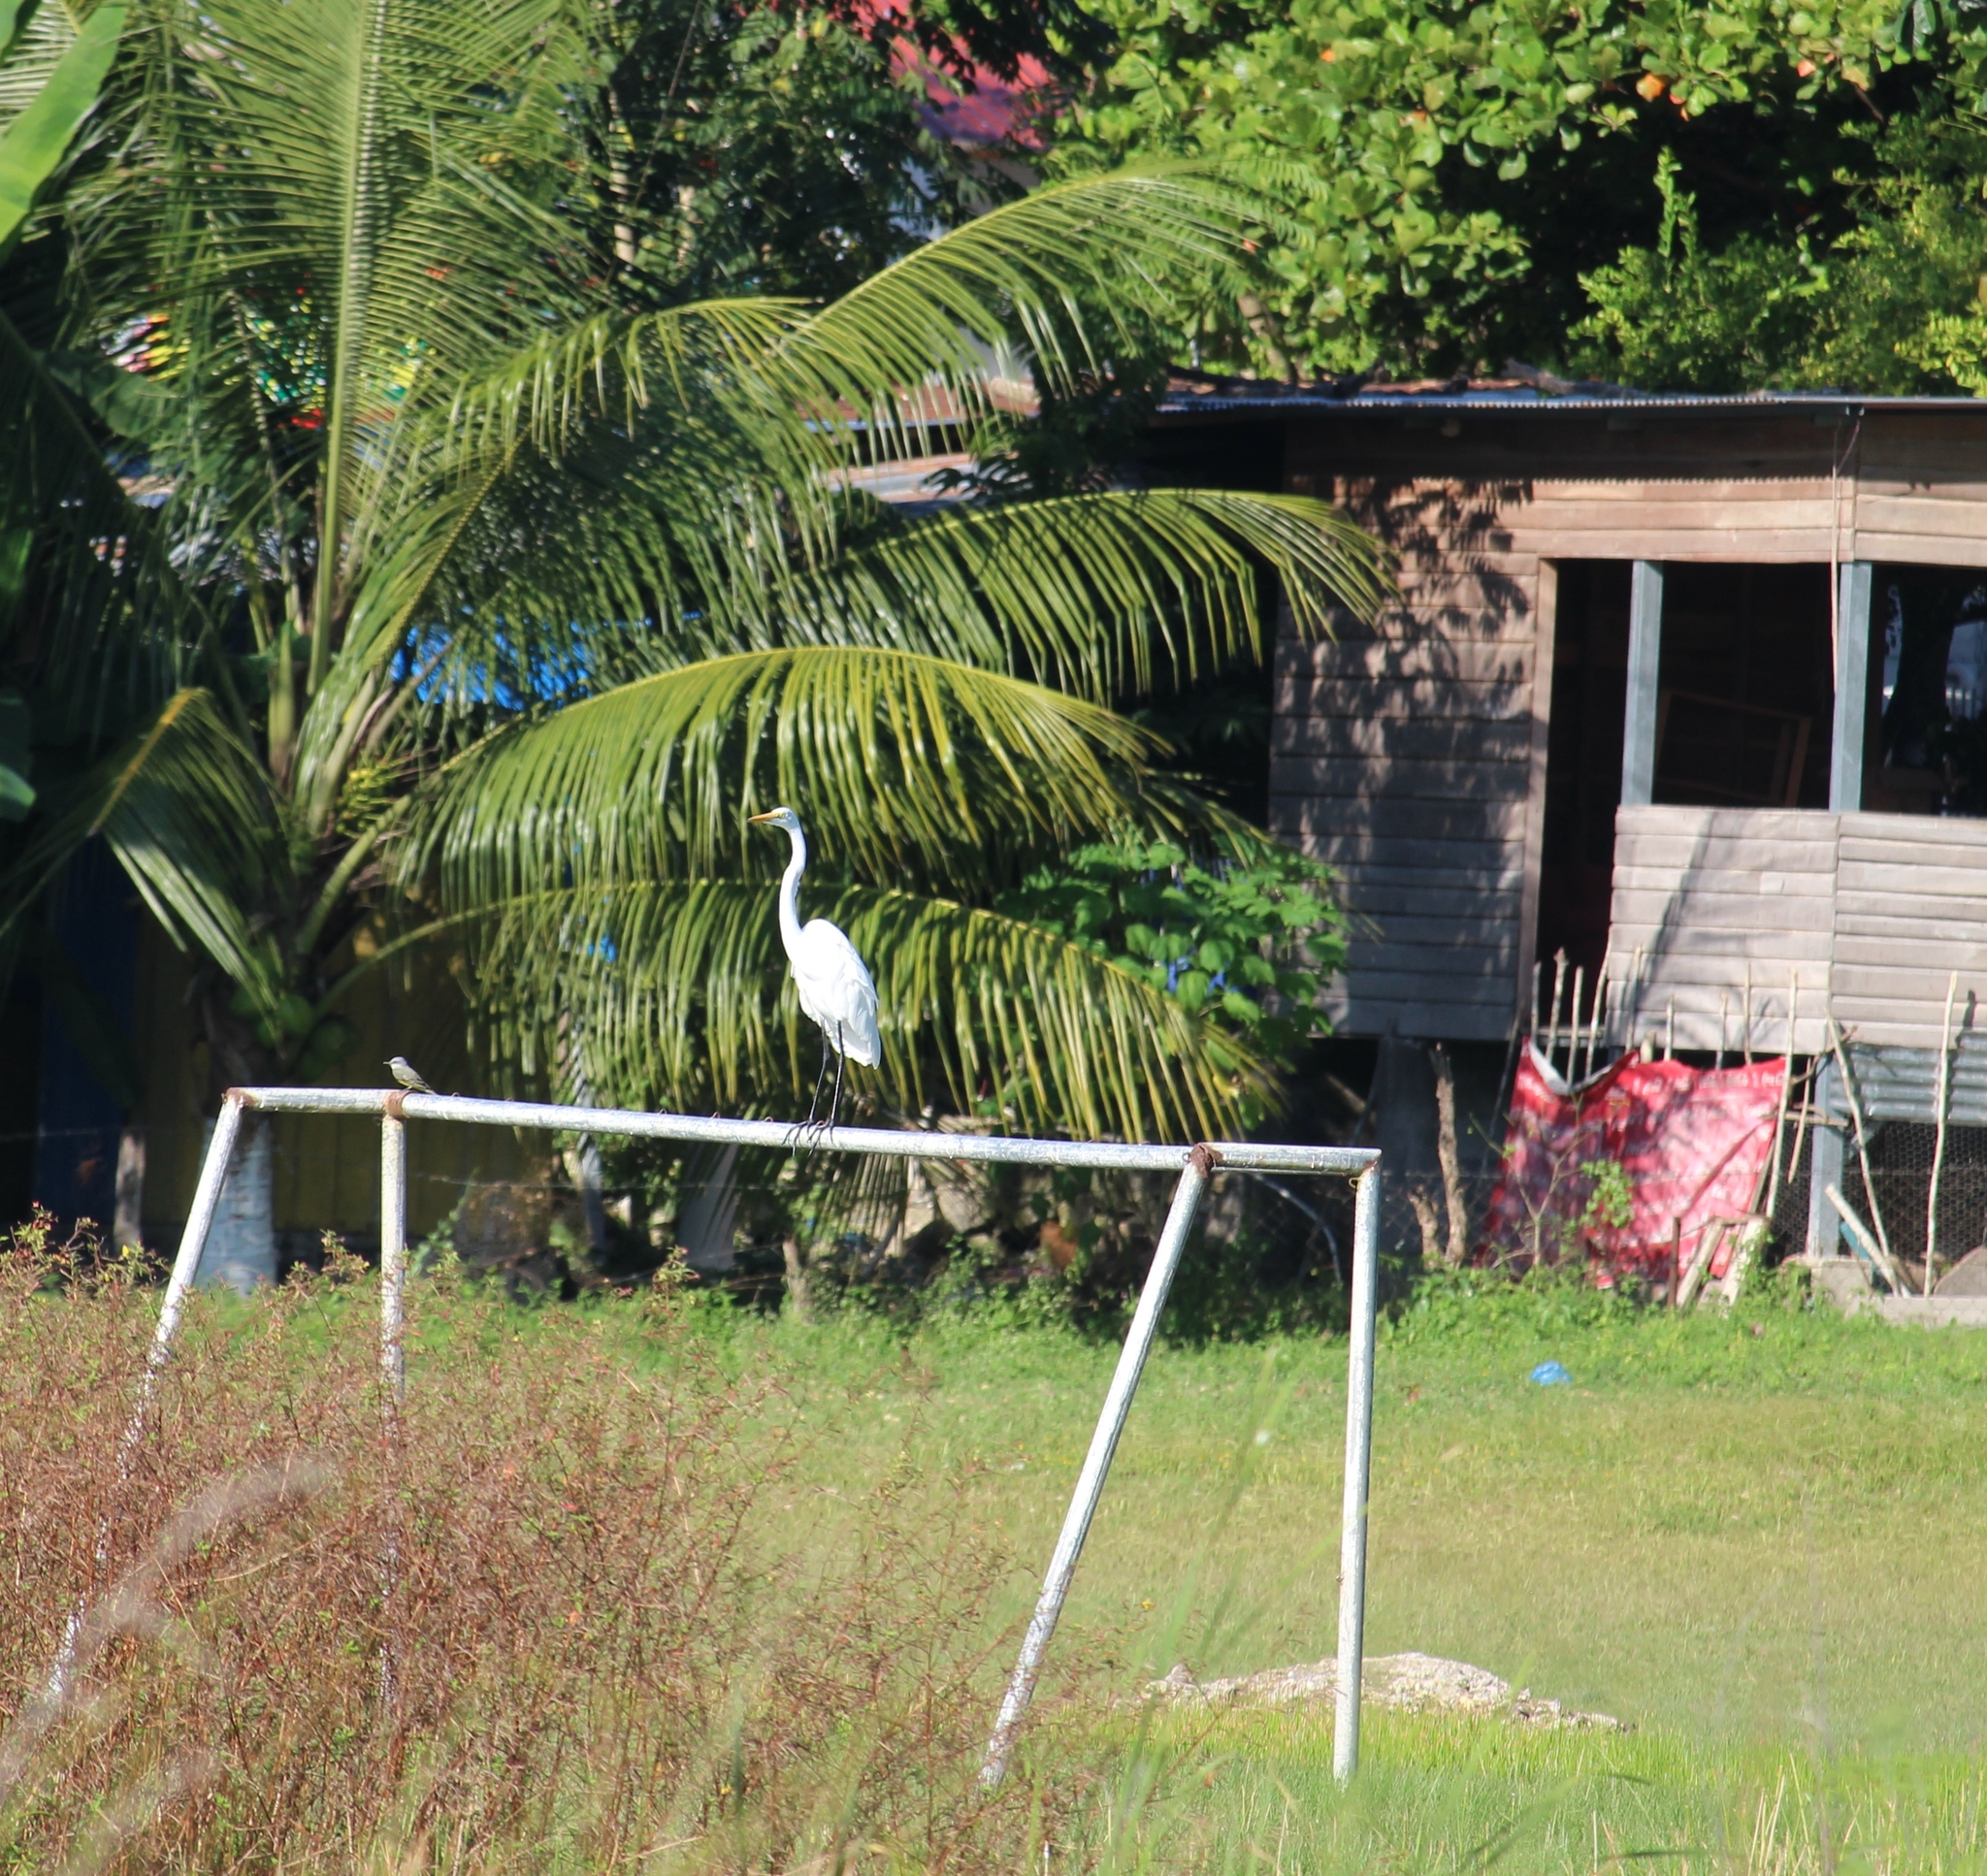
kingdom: Animalia
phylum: Chordata
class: Aves
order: Pelecaniformes
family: Ardeidae
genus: Ardea
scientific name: Ardea alba
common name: Great egret
